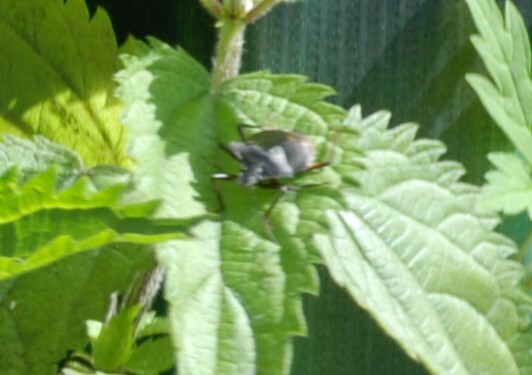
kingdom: Animalia
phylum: Arthropoda
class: Insecta
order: Hemiptera
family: Pentatomidae
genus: Pentatoma
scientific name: Pentatoma rufipes
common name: Forest bug
